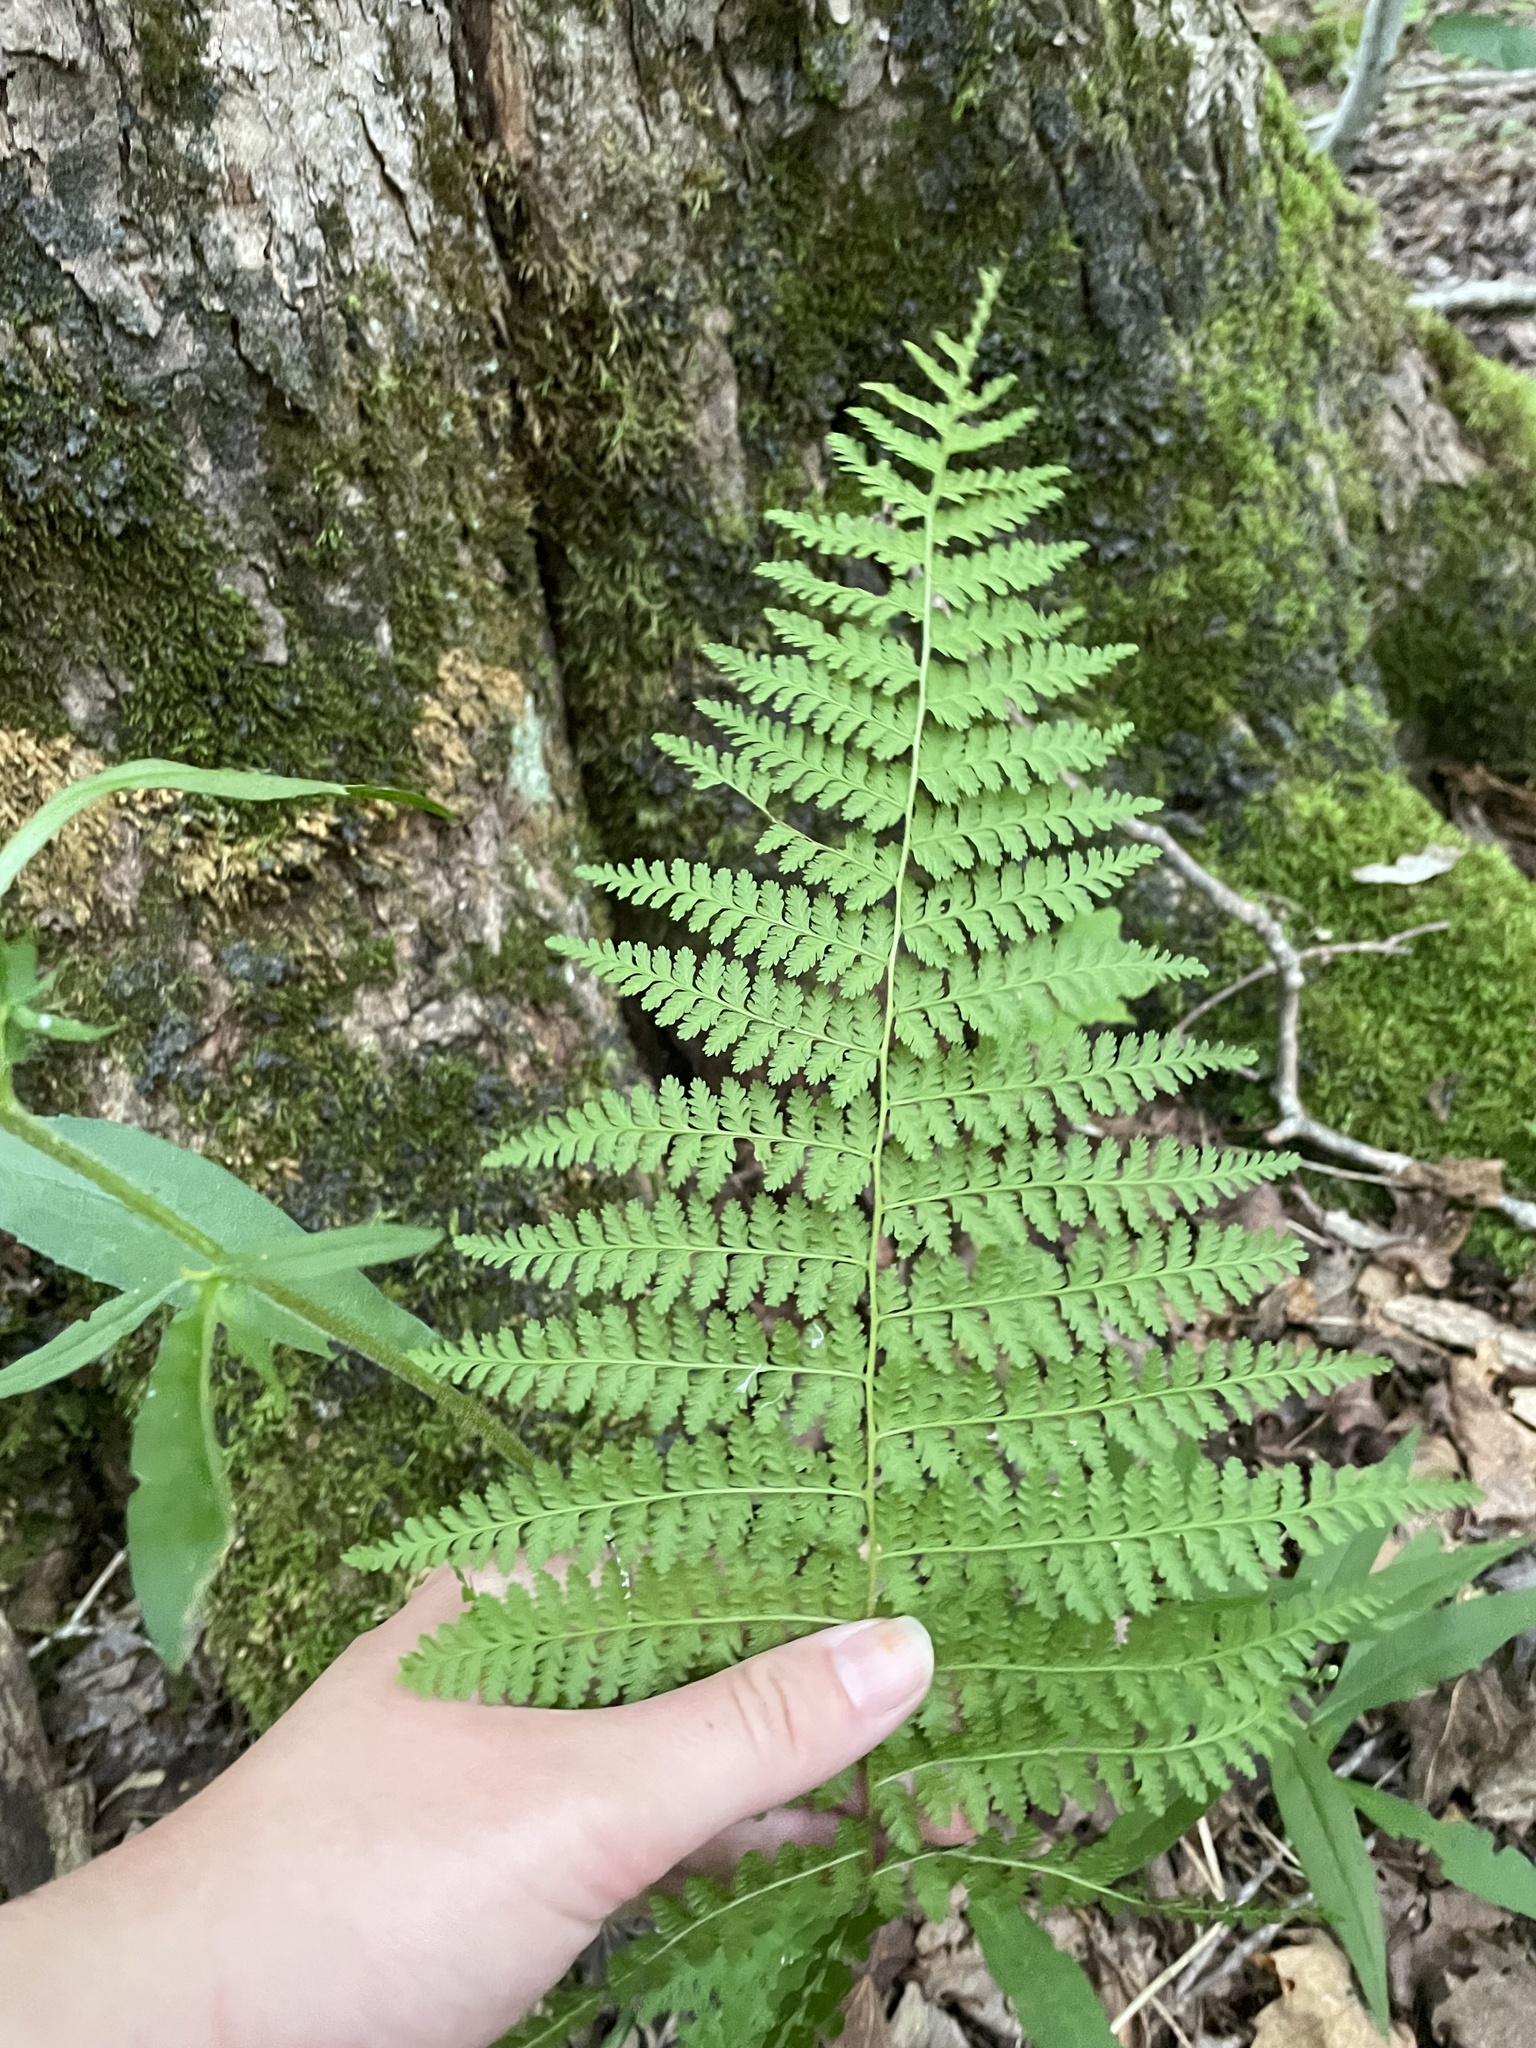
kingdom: Plantae
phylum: Tracheophyta
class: Polypodiopsida
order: Polypodiales
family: Dennstaedtiaceae
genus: Sitobolium
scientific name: Sitobolium punctilobum
